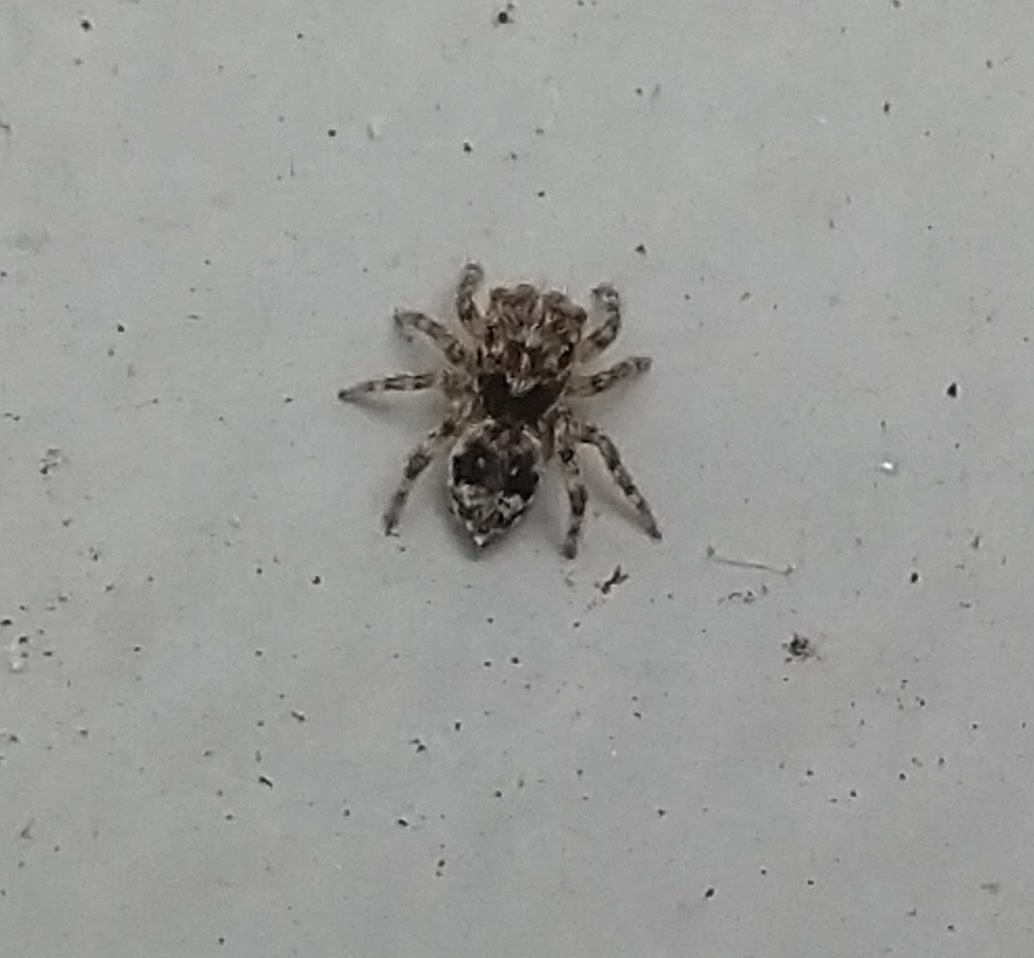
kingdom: Animalia
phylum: Arthropoda
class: Arachnida
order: Araneae
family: Salticidae
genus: Attulus
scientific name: Attulus fasciger
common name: Asiatic wall jumping spider
